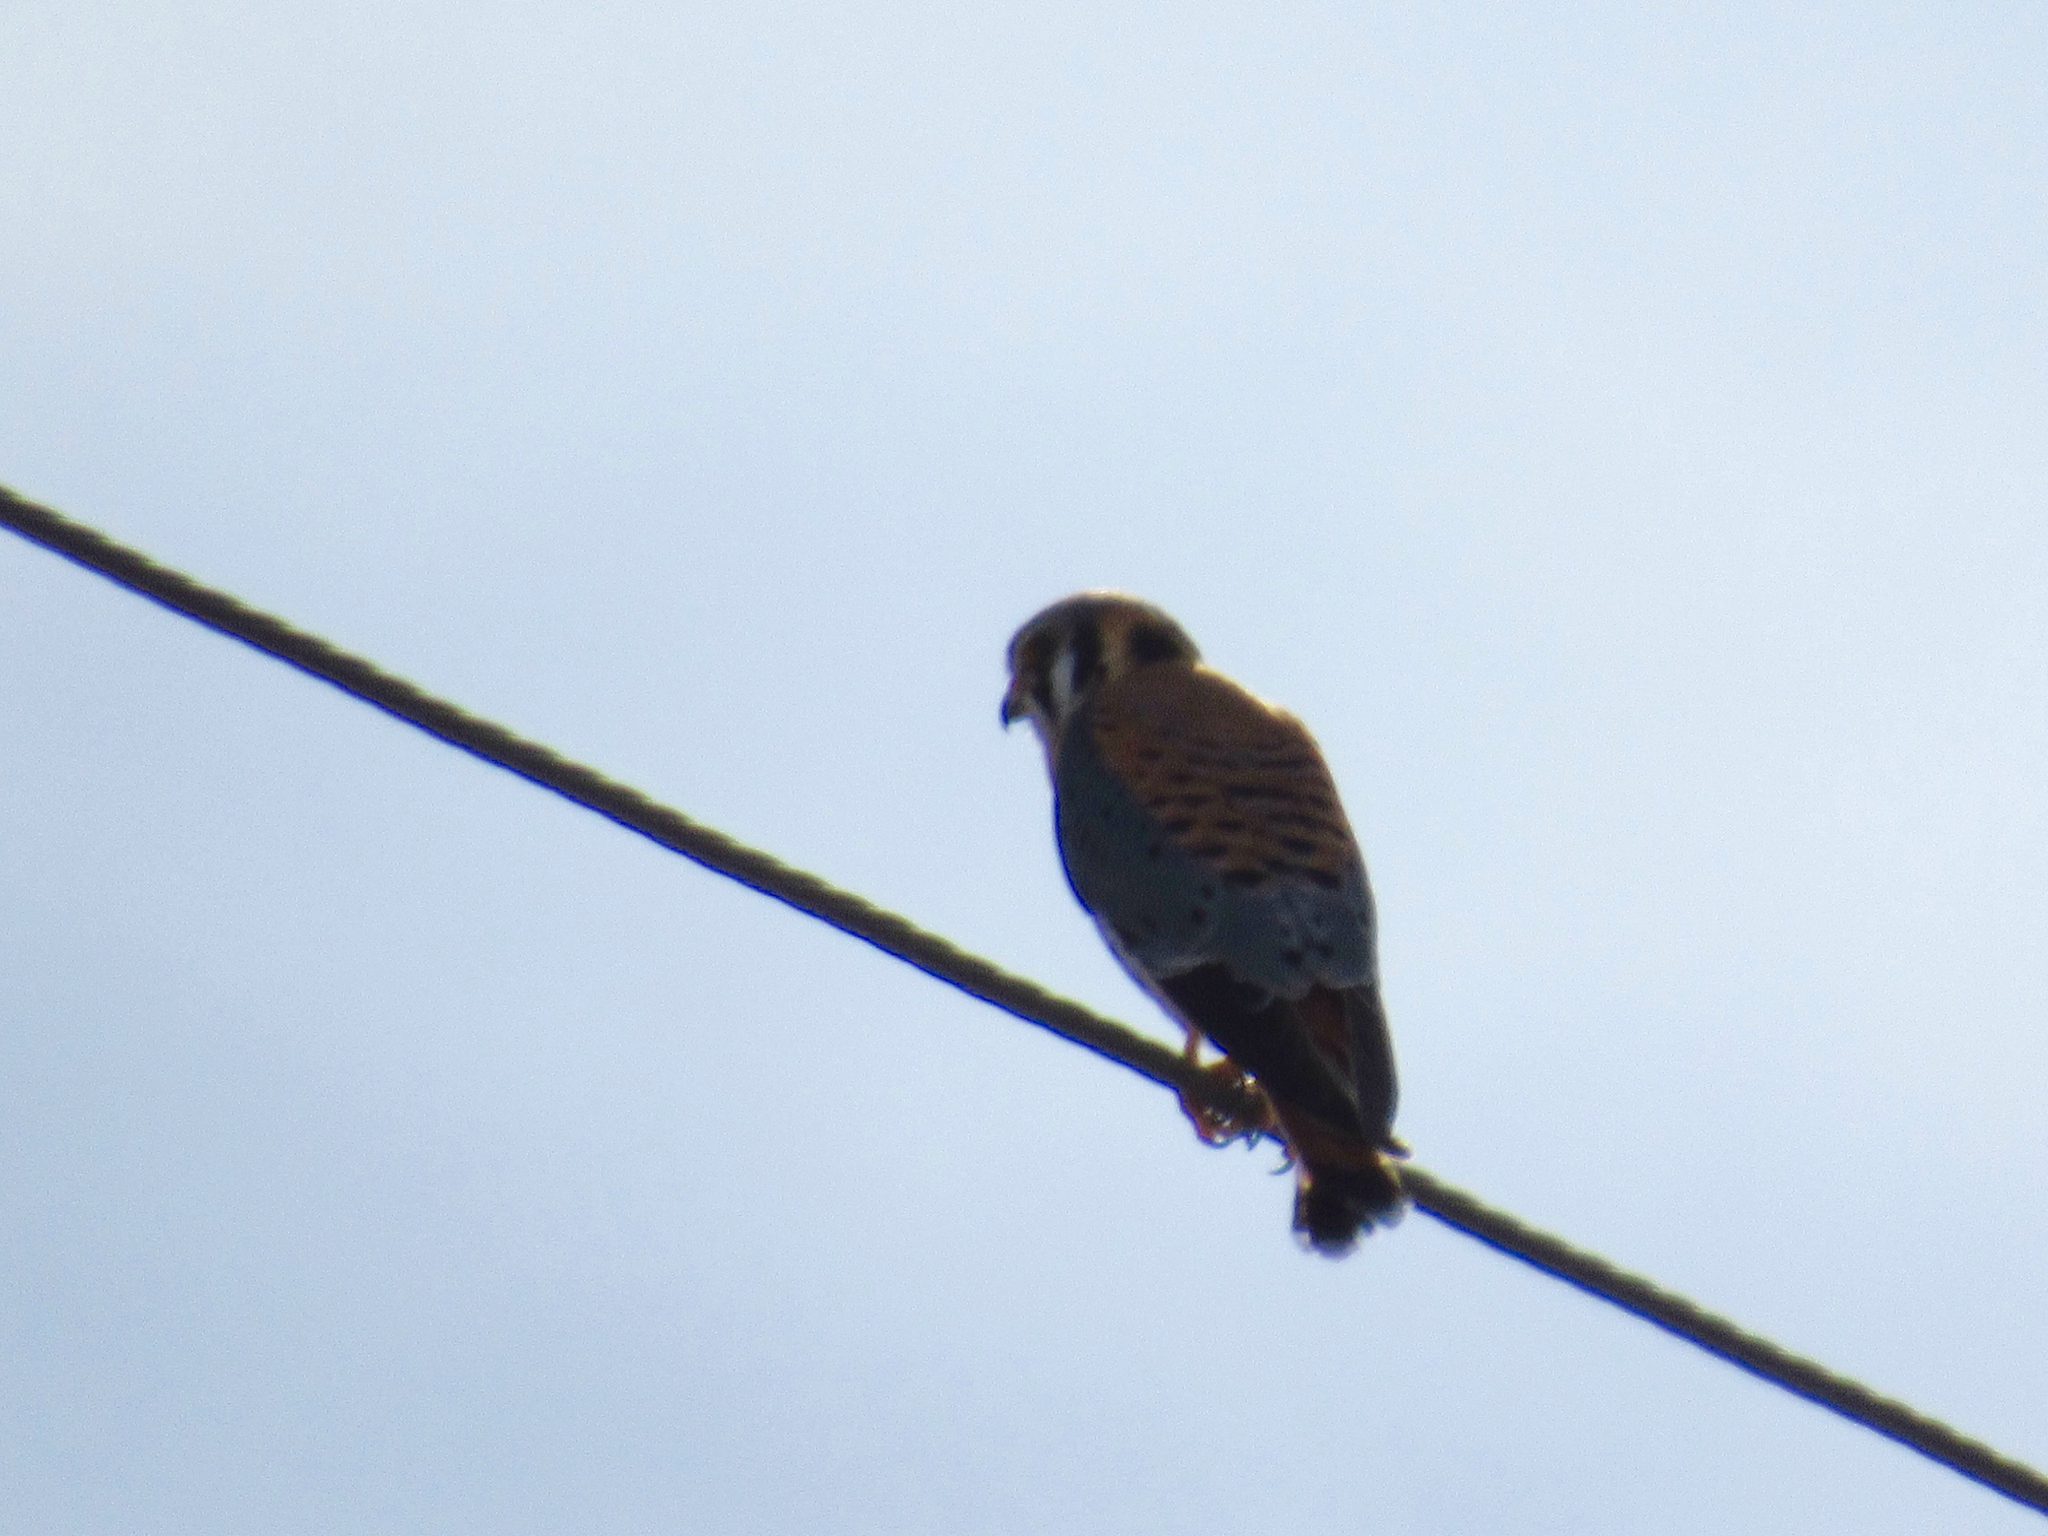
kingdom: Animalia
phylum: Chordata
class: Aves
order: Falconiformes
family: Falconidae
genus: Falco
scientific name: Falco sparverius
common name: American kestrel
